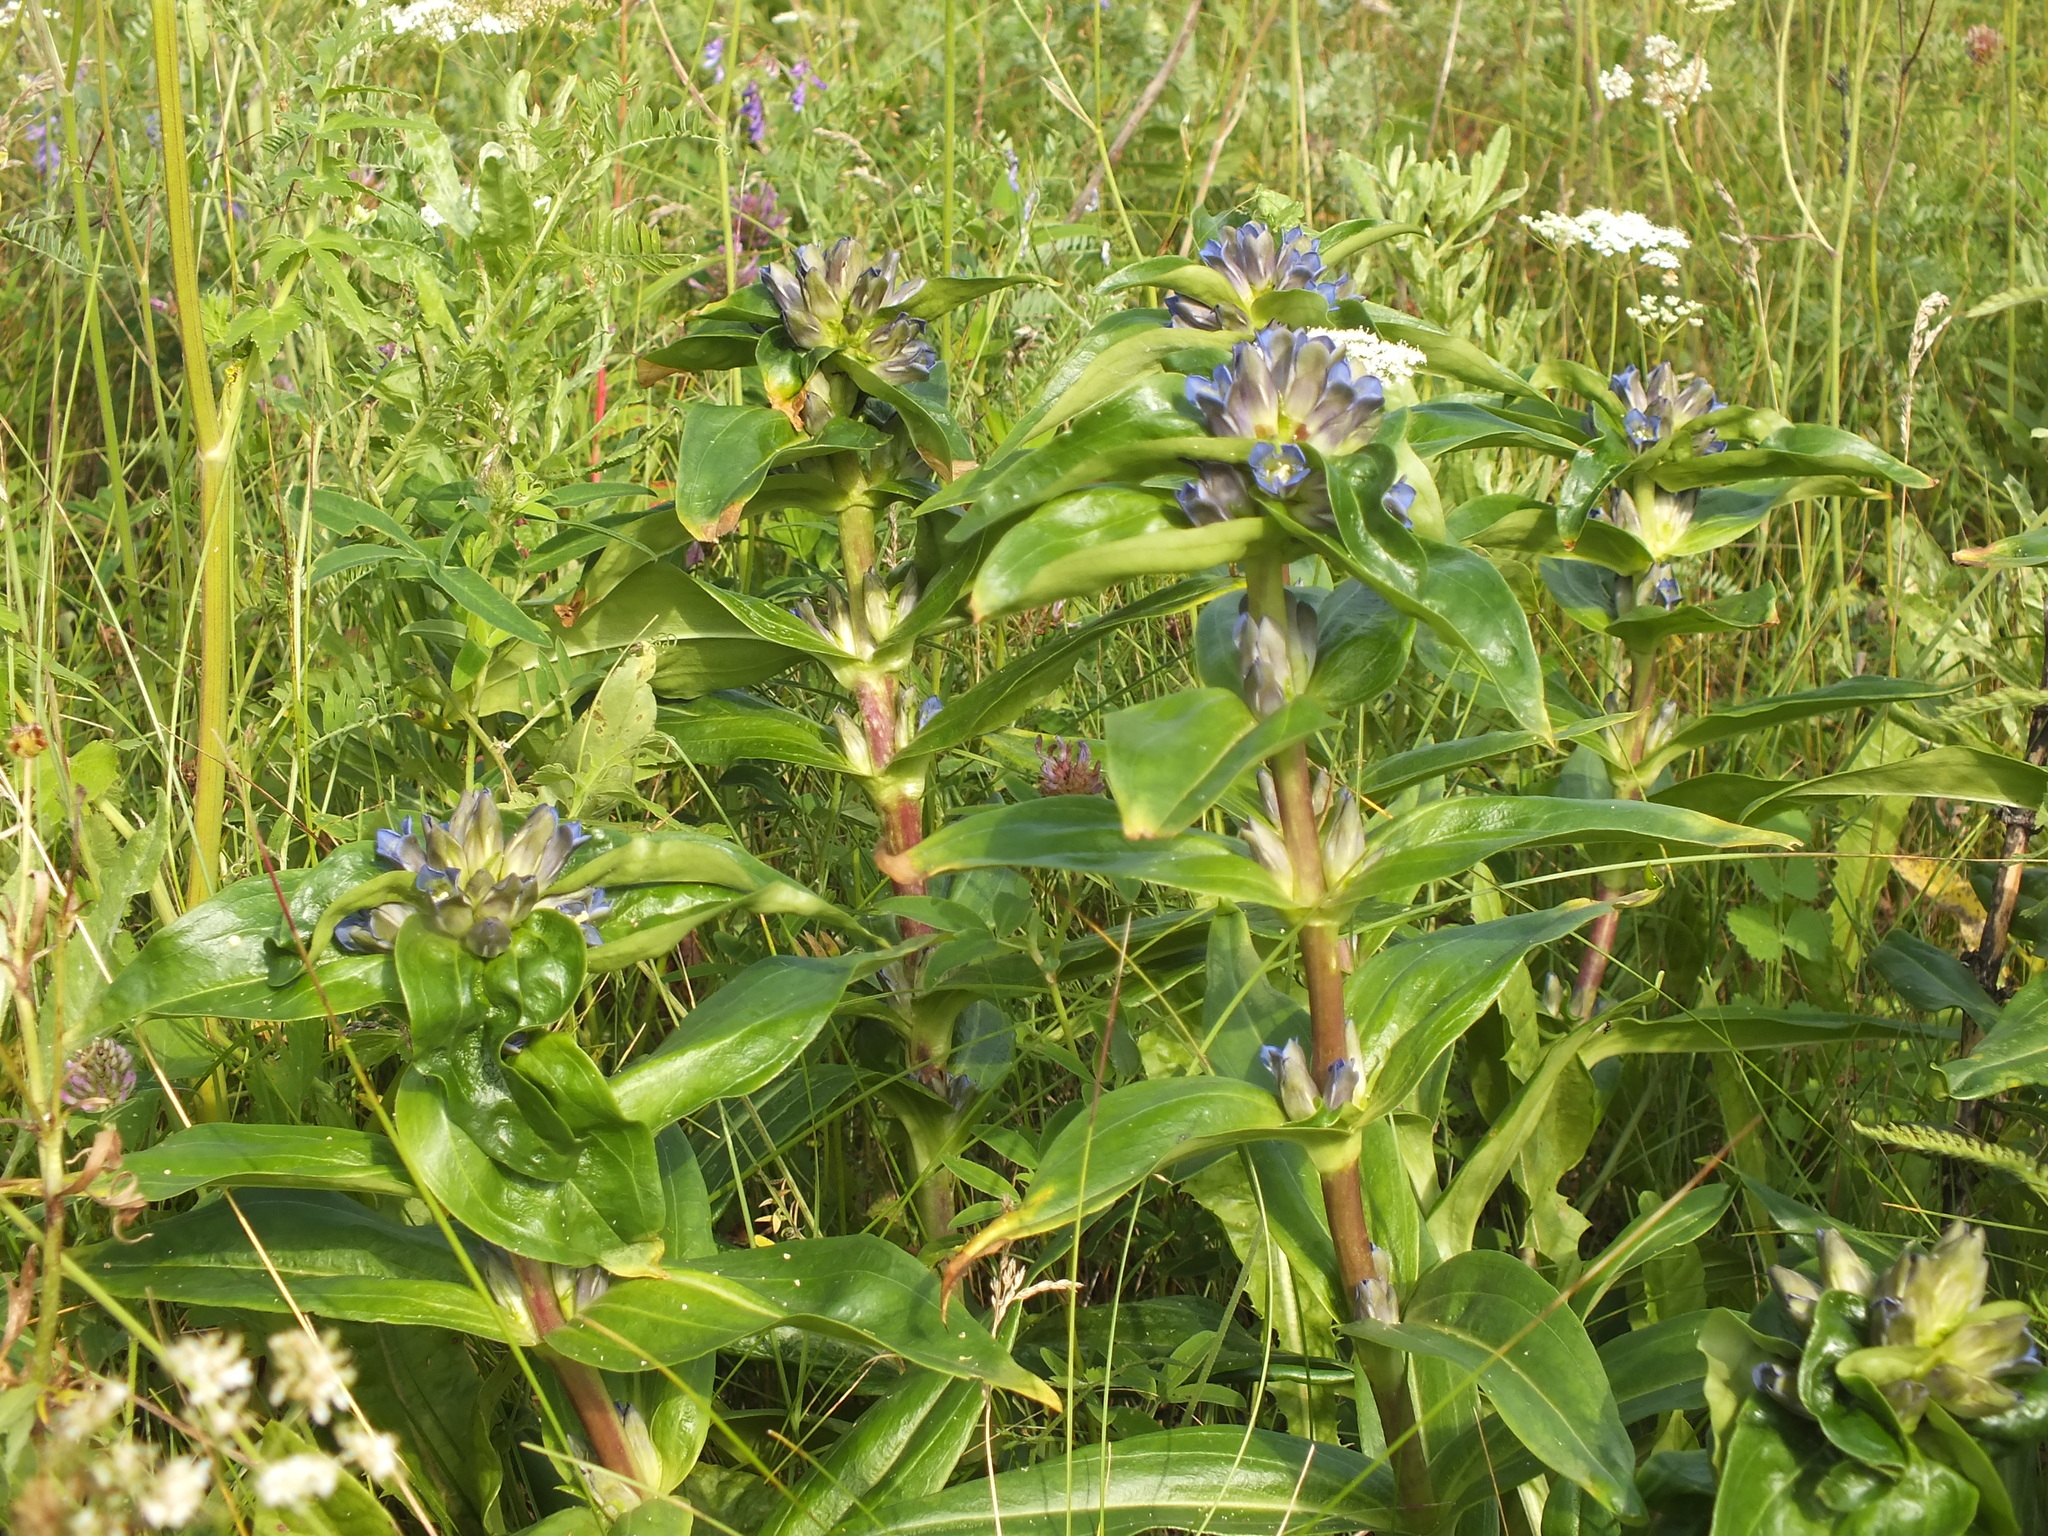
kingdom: Plantae
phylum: Tracheophyta
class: Magnoliopsida
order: Gentianales
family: Gentianaceae
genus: Gentiana
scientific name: Gentiana cruciata
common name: Cross gentian
